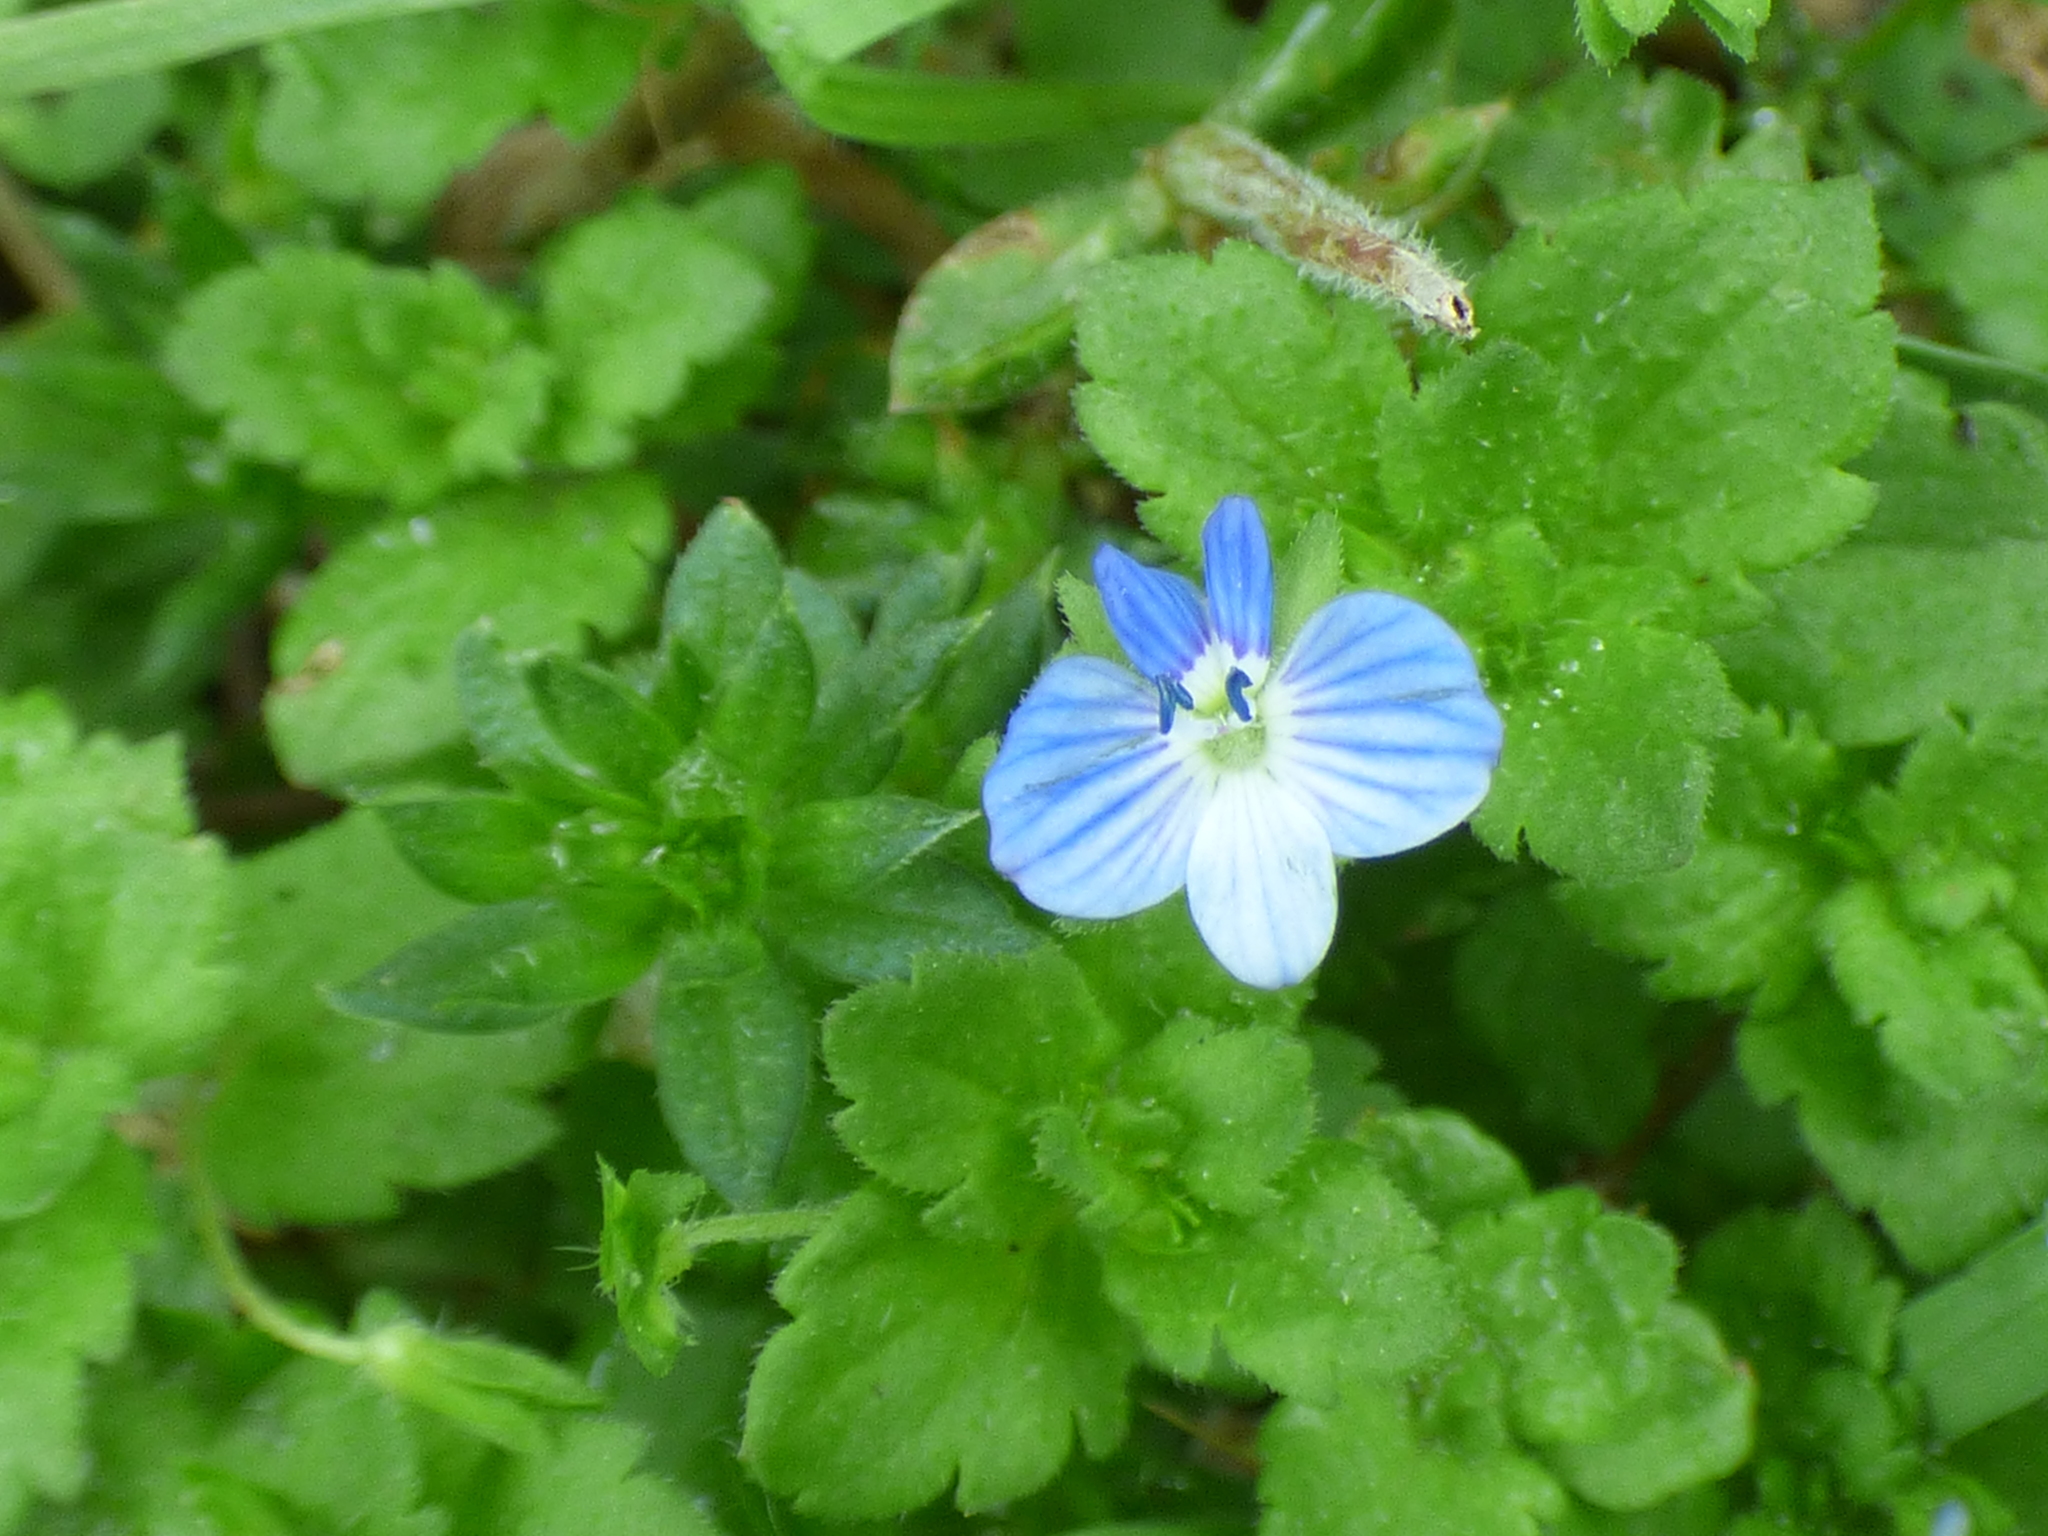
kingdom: Plantae
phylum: Tracheophyta
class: Magnoliopsida
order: Lamiales
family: Plantaginaceae
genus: Veronica
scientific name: Veronica persica
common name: Common field-speedwell
